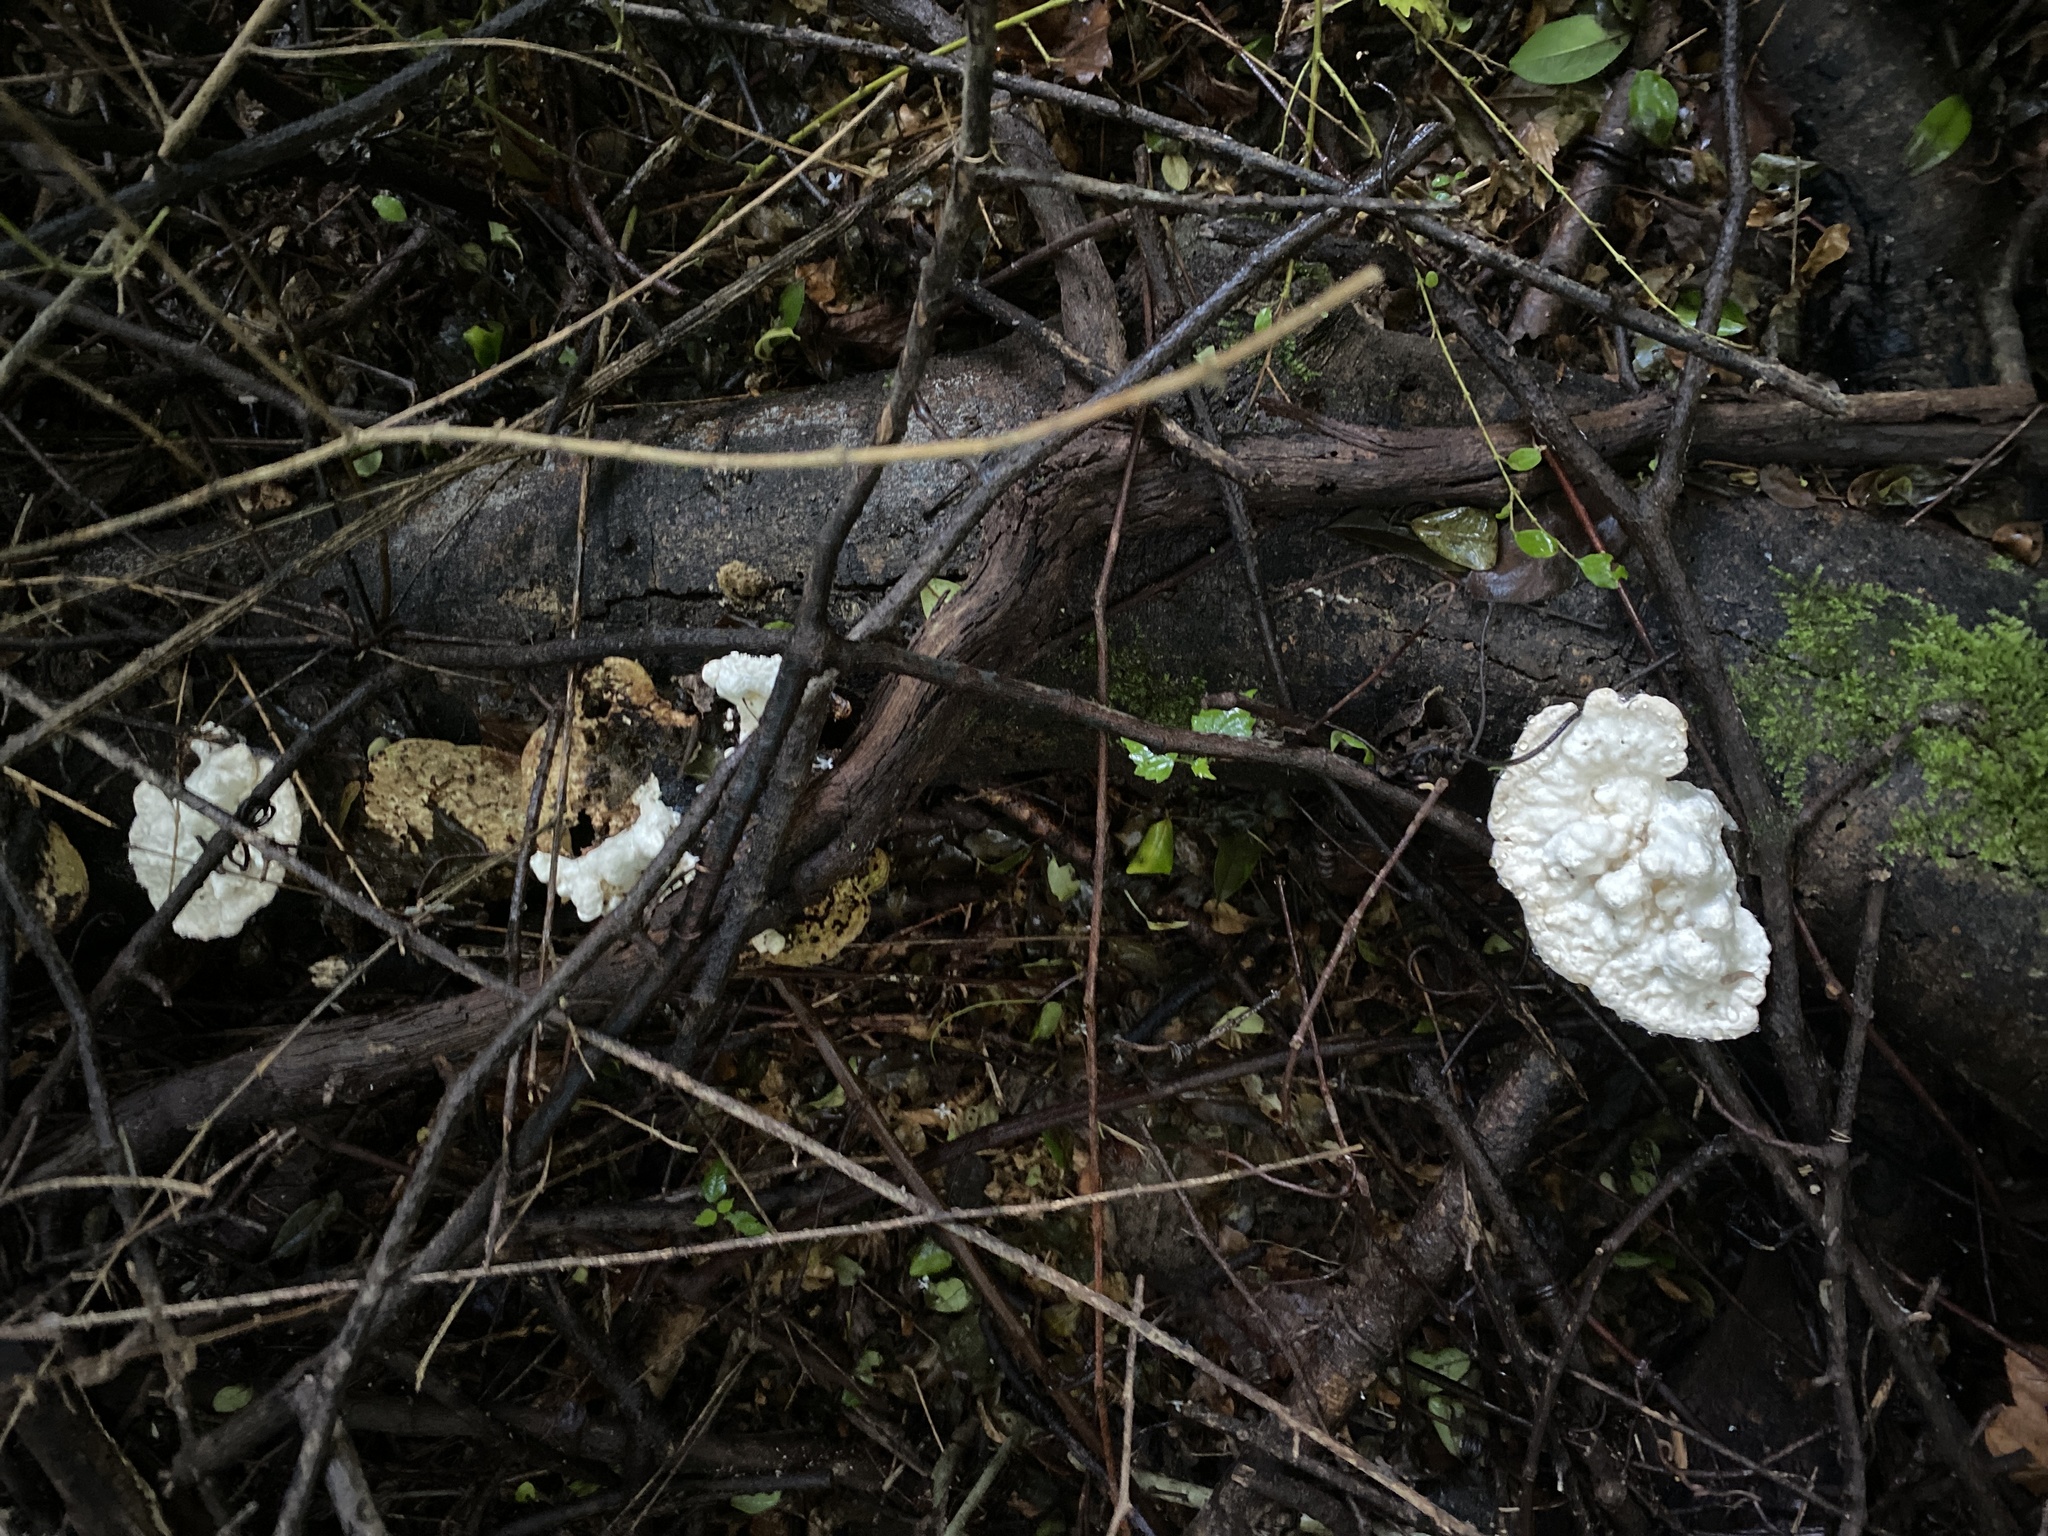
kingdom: Fungi
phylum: Basidiomycota
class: Agaricomycetes
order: Polyporales
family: Polyporaceae
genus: Trametes
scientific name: Trametes gibbosa
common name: Lumpy bracket
